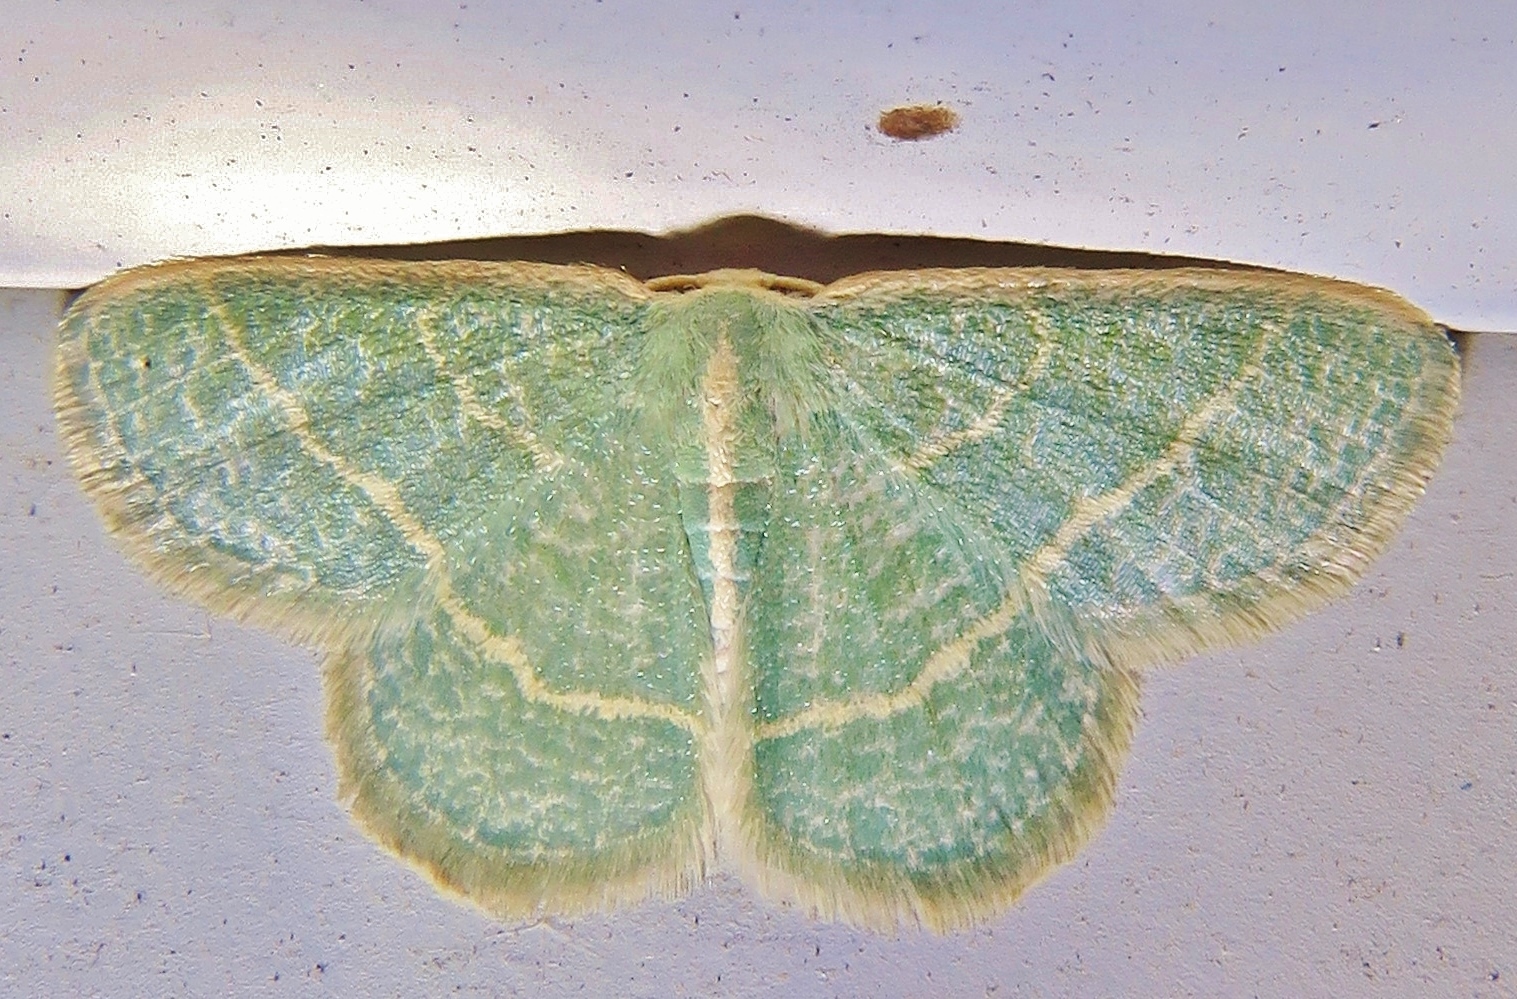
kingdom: Animalia
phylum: Arthropoda
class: Insecta
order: Lepidoptera
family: Geometridae
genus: Chlorochlamys
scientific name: Chlorochlamys chloroleucaria
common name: Blackberry looper
